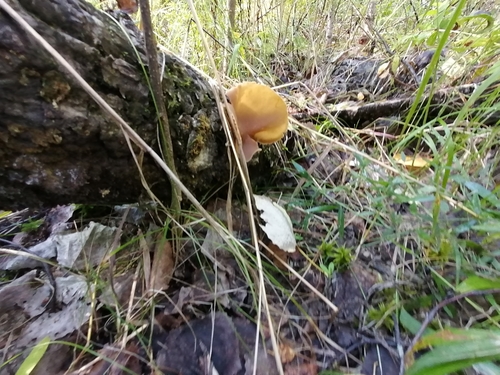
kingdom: Fungi
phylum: Ascomycota
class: Pezizomycetes
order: Pezizales
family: Pezizaceae
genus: Peziza
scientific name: Peziza varia
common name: Layered cup
